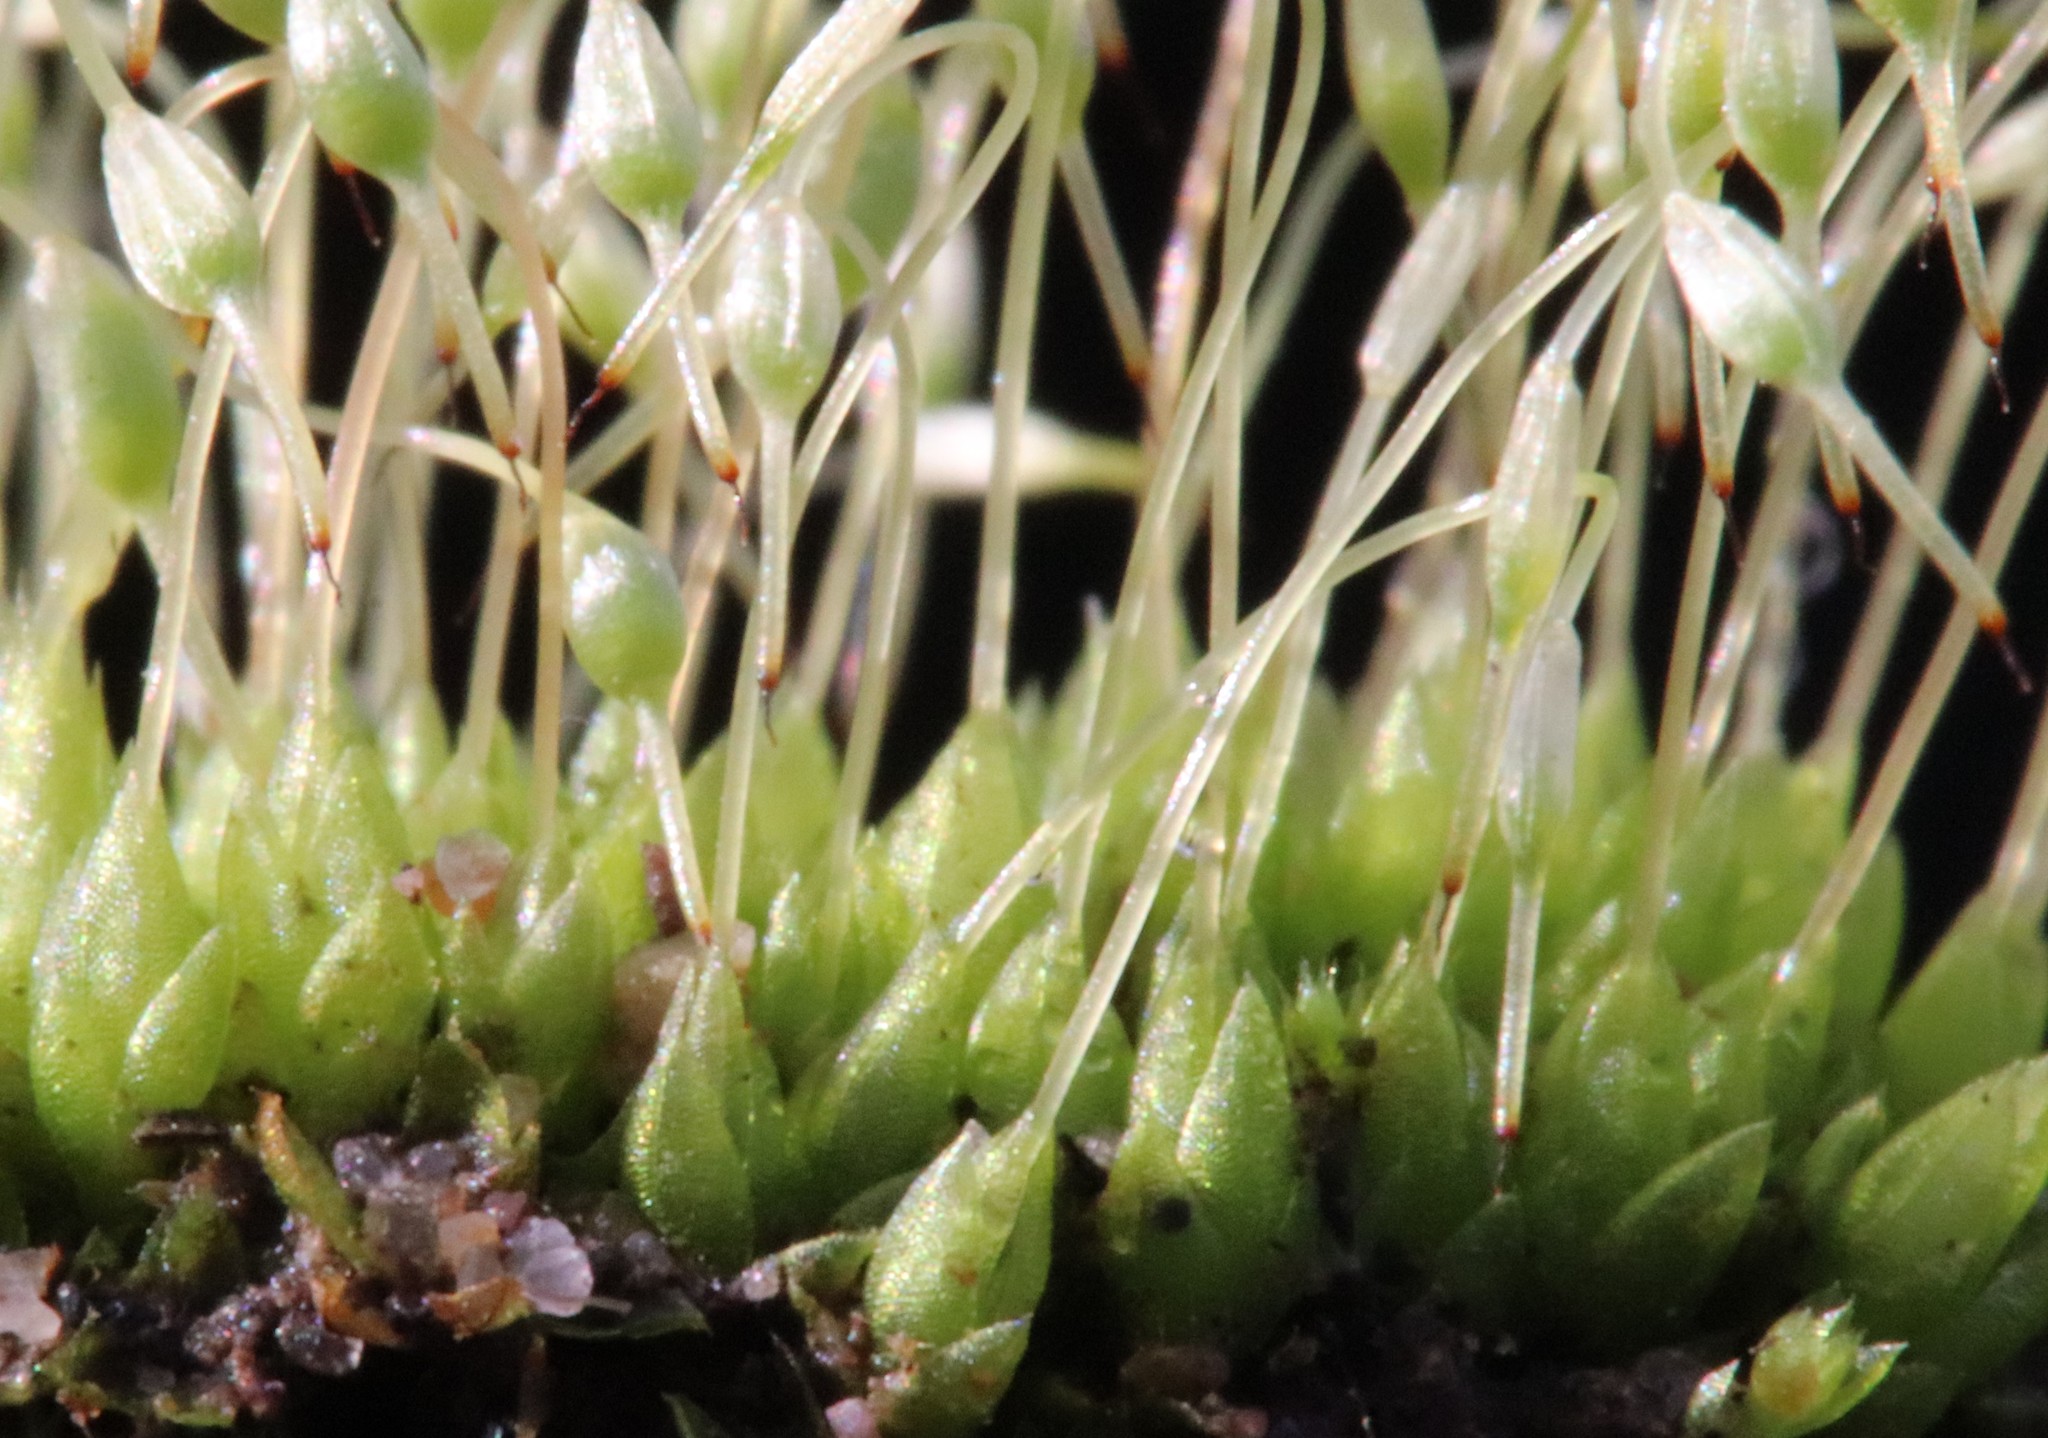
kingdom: Plantae
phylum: Bryophyta
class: Bryopsida
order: Funariales
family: Funariaceae
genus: Funaria
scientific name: Funaria hygrometrica
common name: Common cord moss
